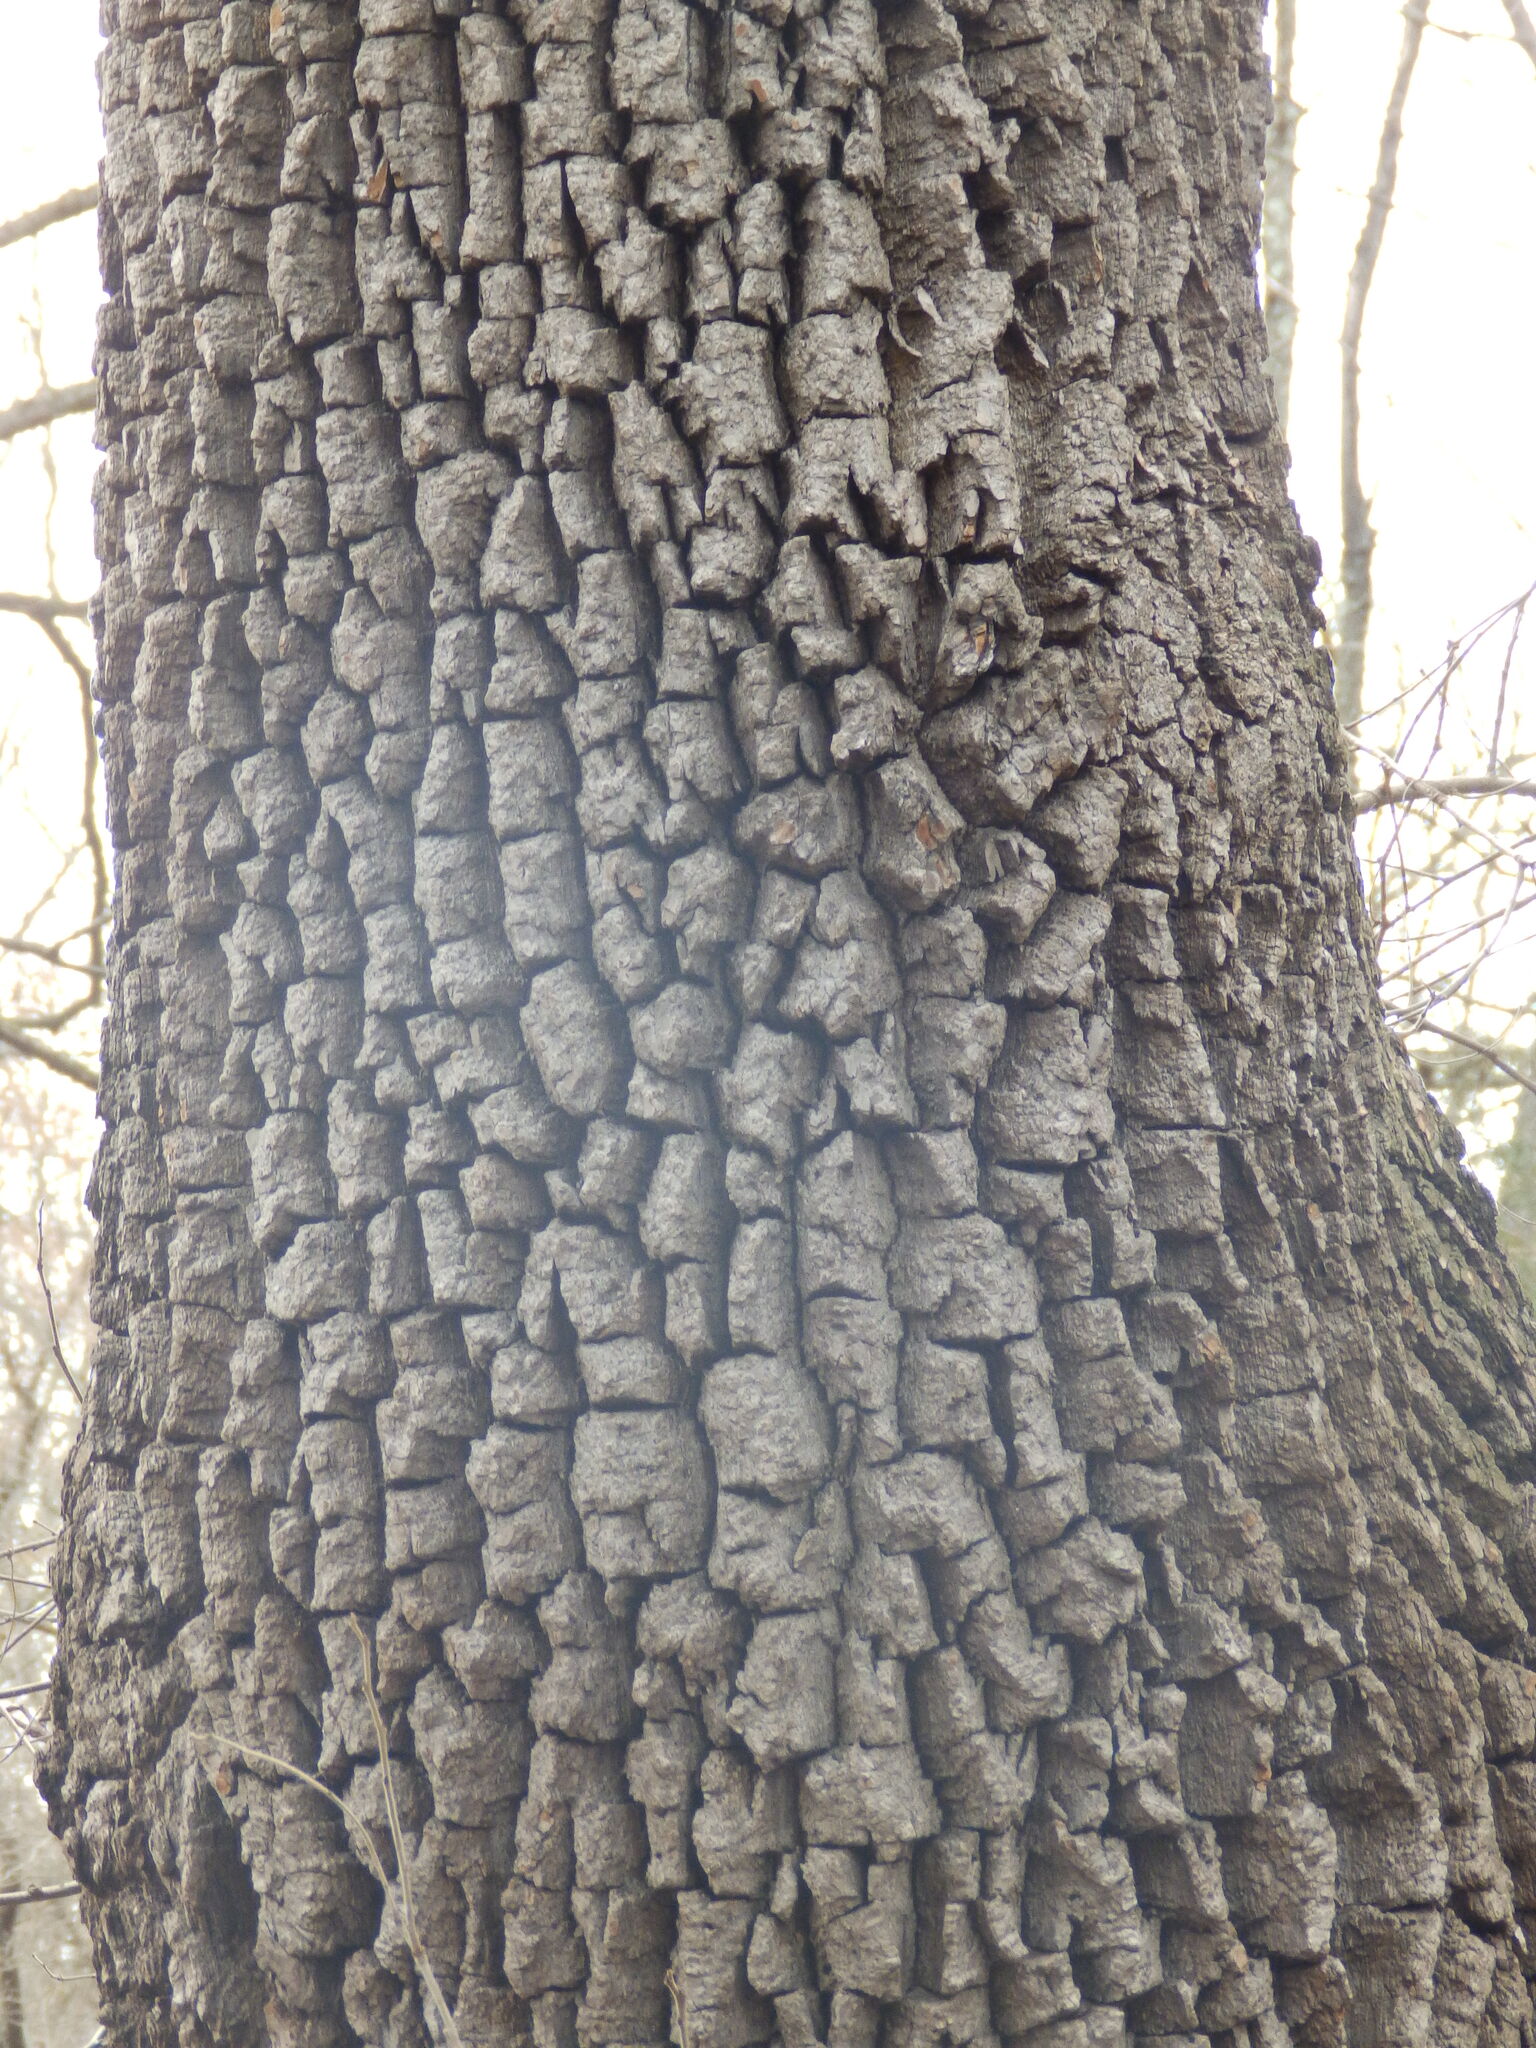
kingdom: Plantae
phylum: Tracheophyta
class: Magnoliopsida
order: Ericales
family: Ebenaceae
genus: Diospyros
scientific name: Diospyros virginiana
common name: Persimmon
